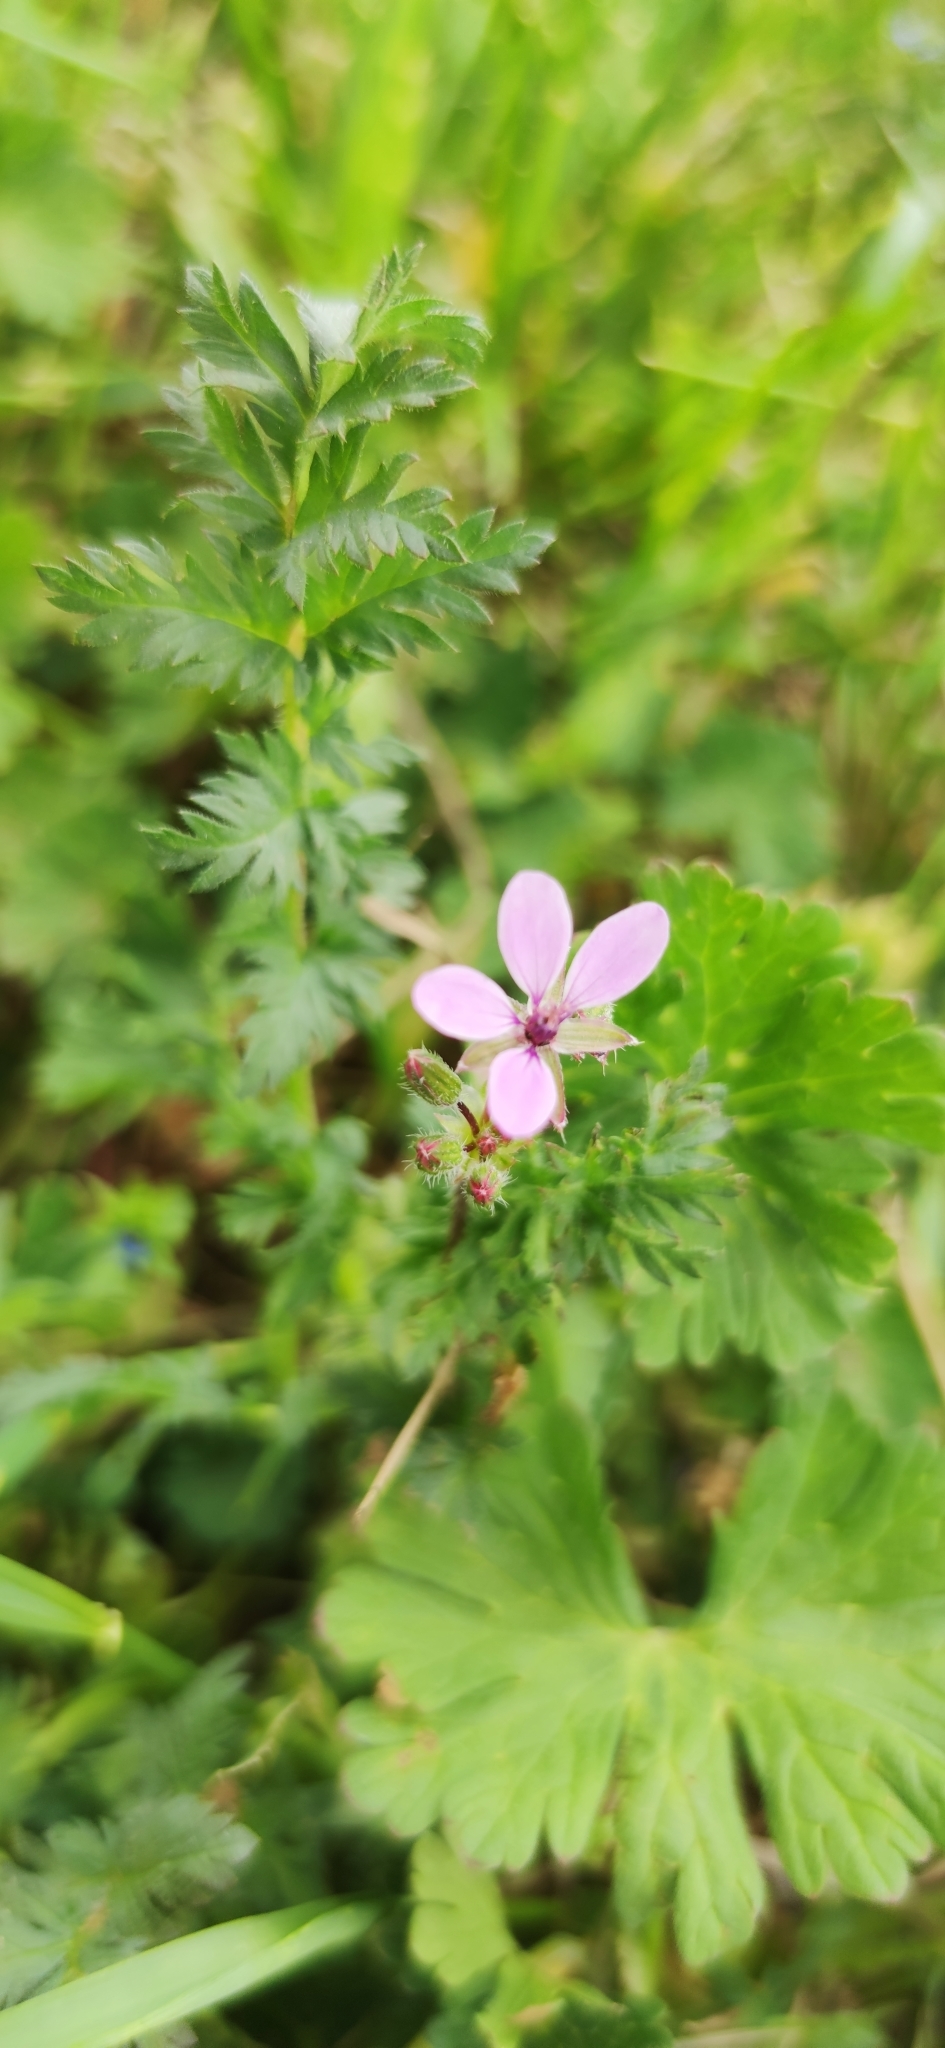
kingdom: Plantae
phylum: Tracheophyta
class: Magnoliopsida
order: Geraniales
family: Geraniaceae
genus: Erodium
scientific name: Erodium cicutarium
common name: Common stork's-bill
